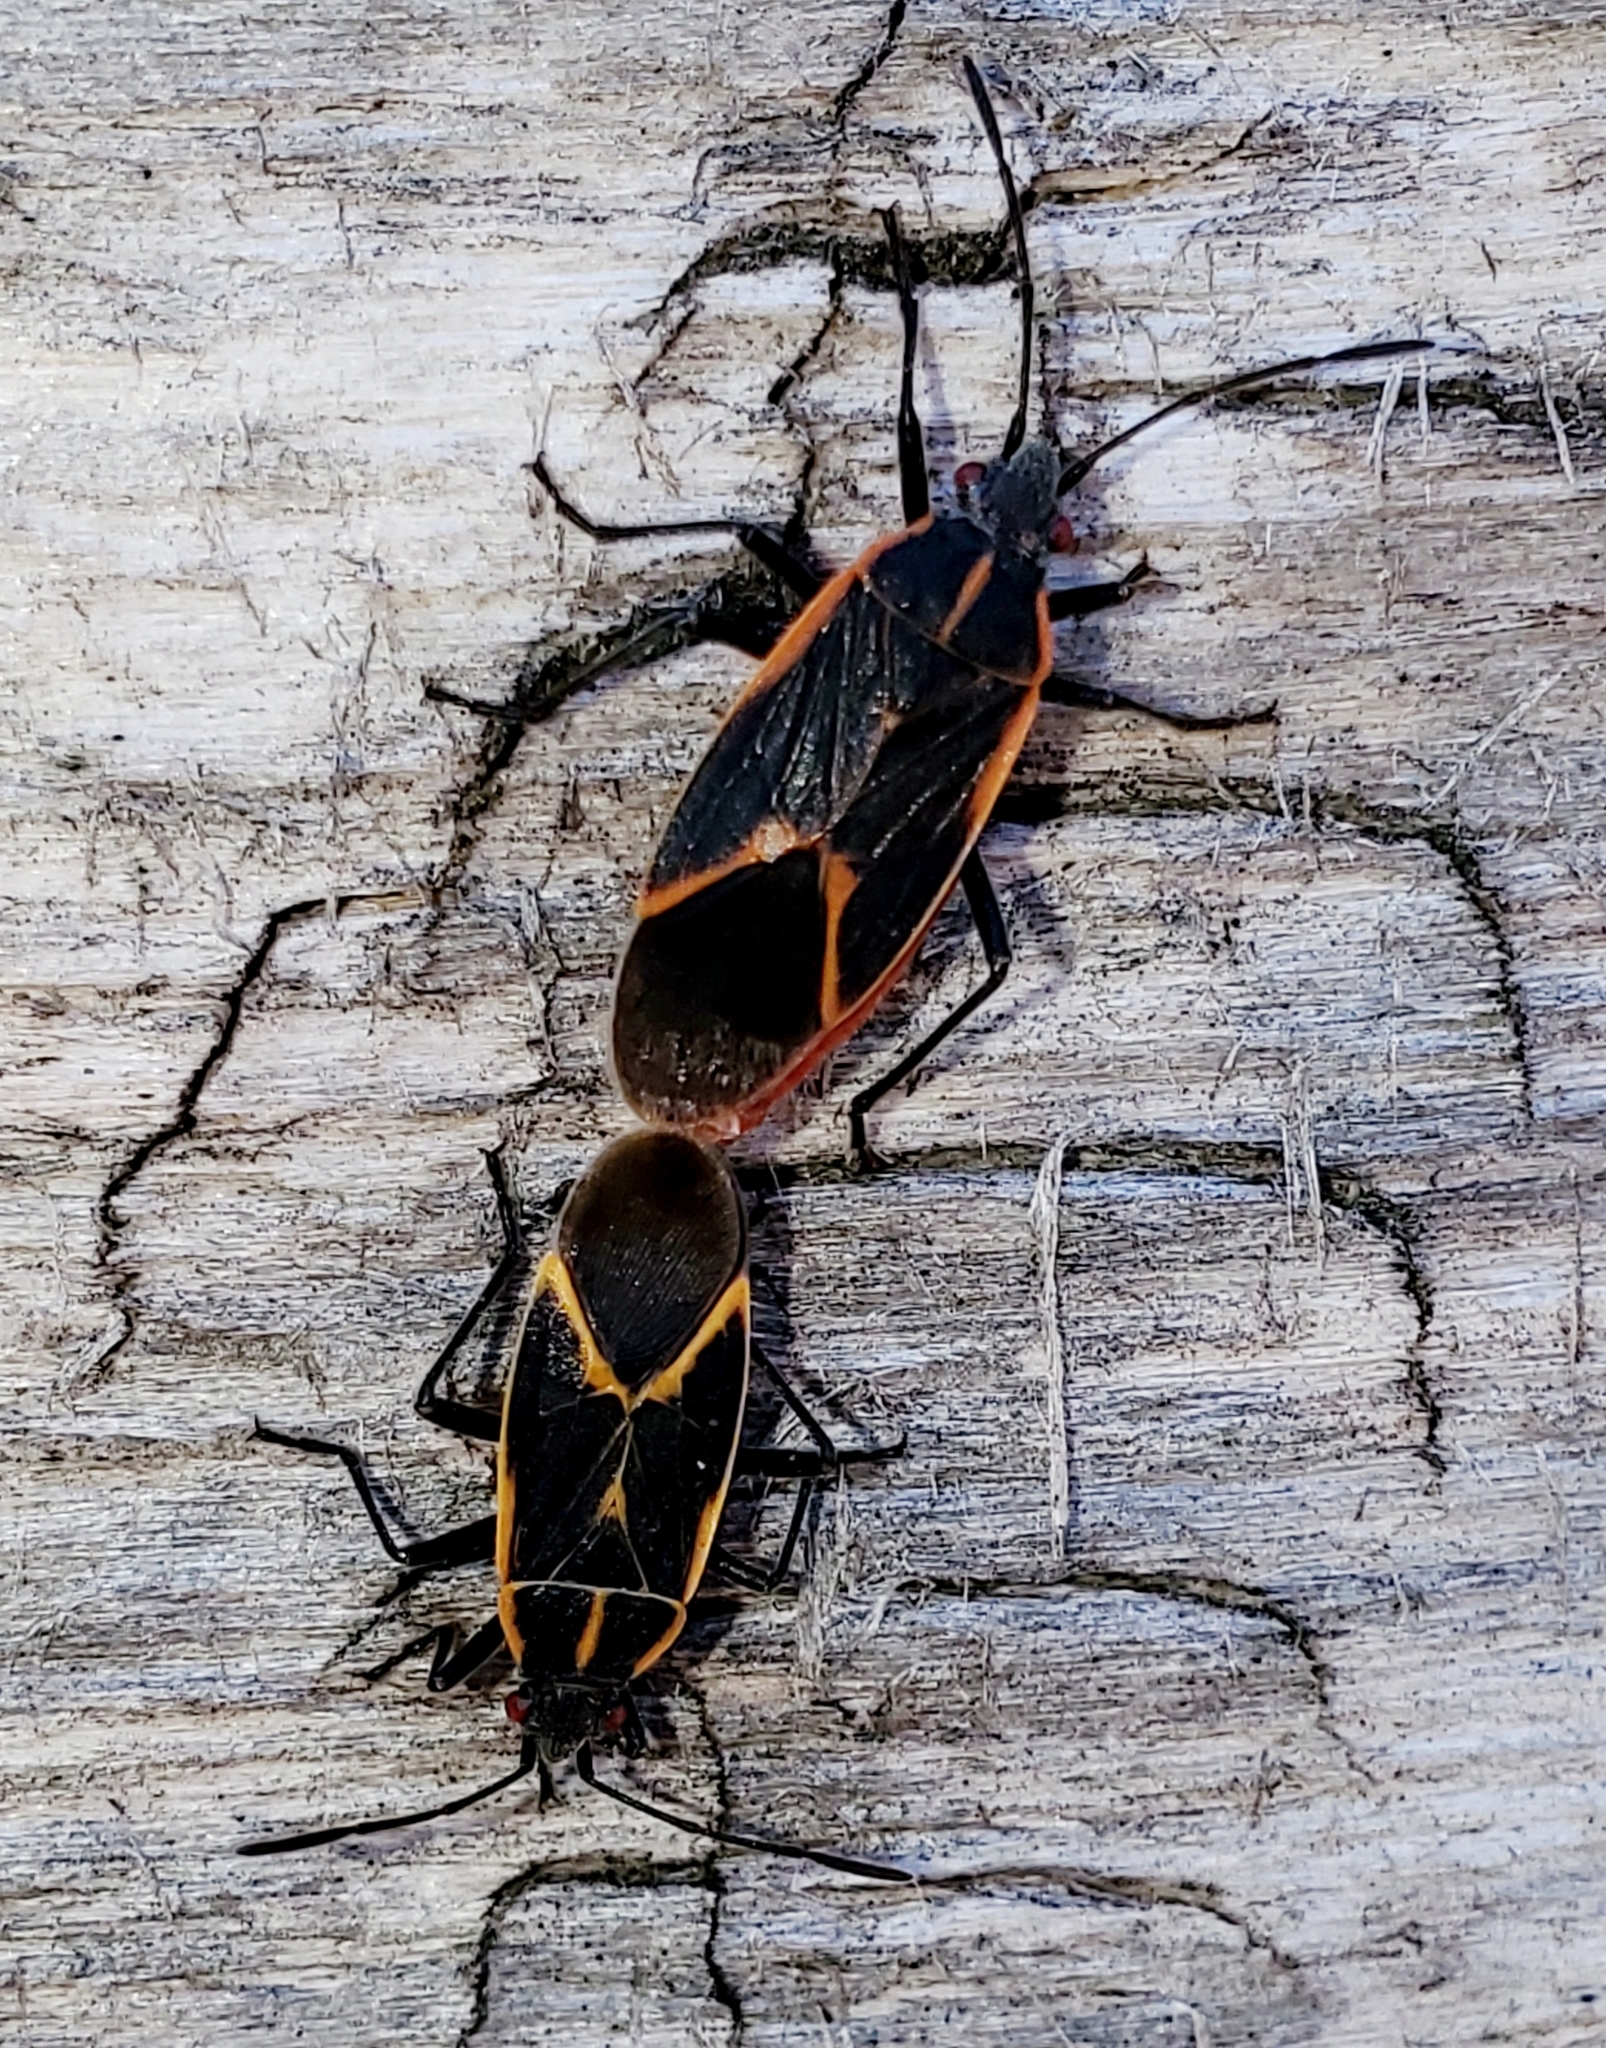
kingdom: Animalia
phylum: Arthropoda
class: Insecta
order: Hemiptera
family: Rhopalidae
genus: Boisea
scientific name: Boisea trivittata
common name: Boxelder bug
